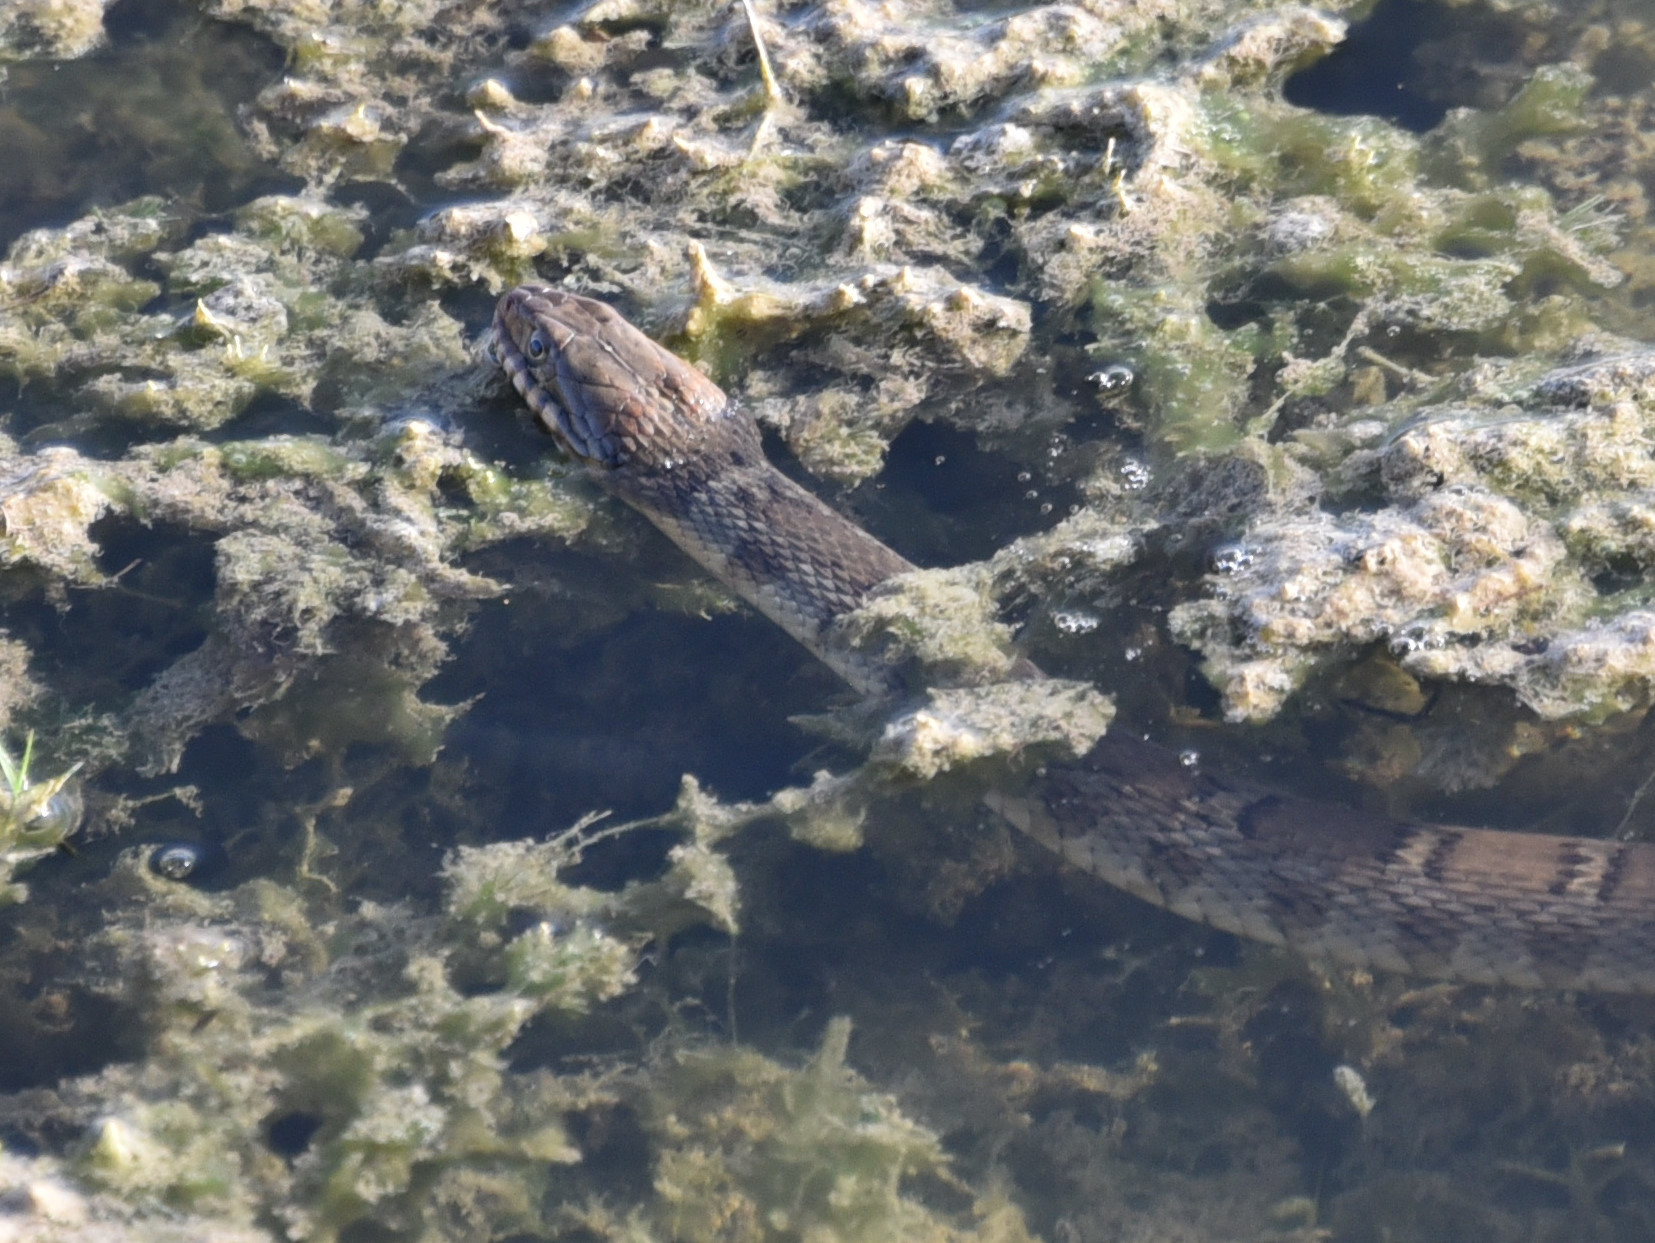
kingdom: Animalia
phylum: Chordata
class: Squamata
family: Colubridae
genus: Nerodia
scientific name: Nerodia erythrogaster
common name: Plainbelly water snake
